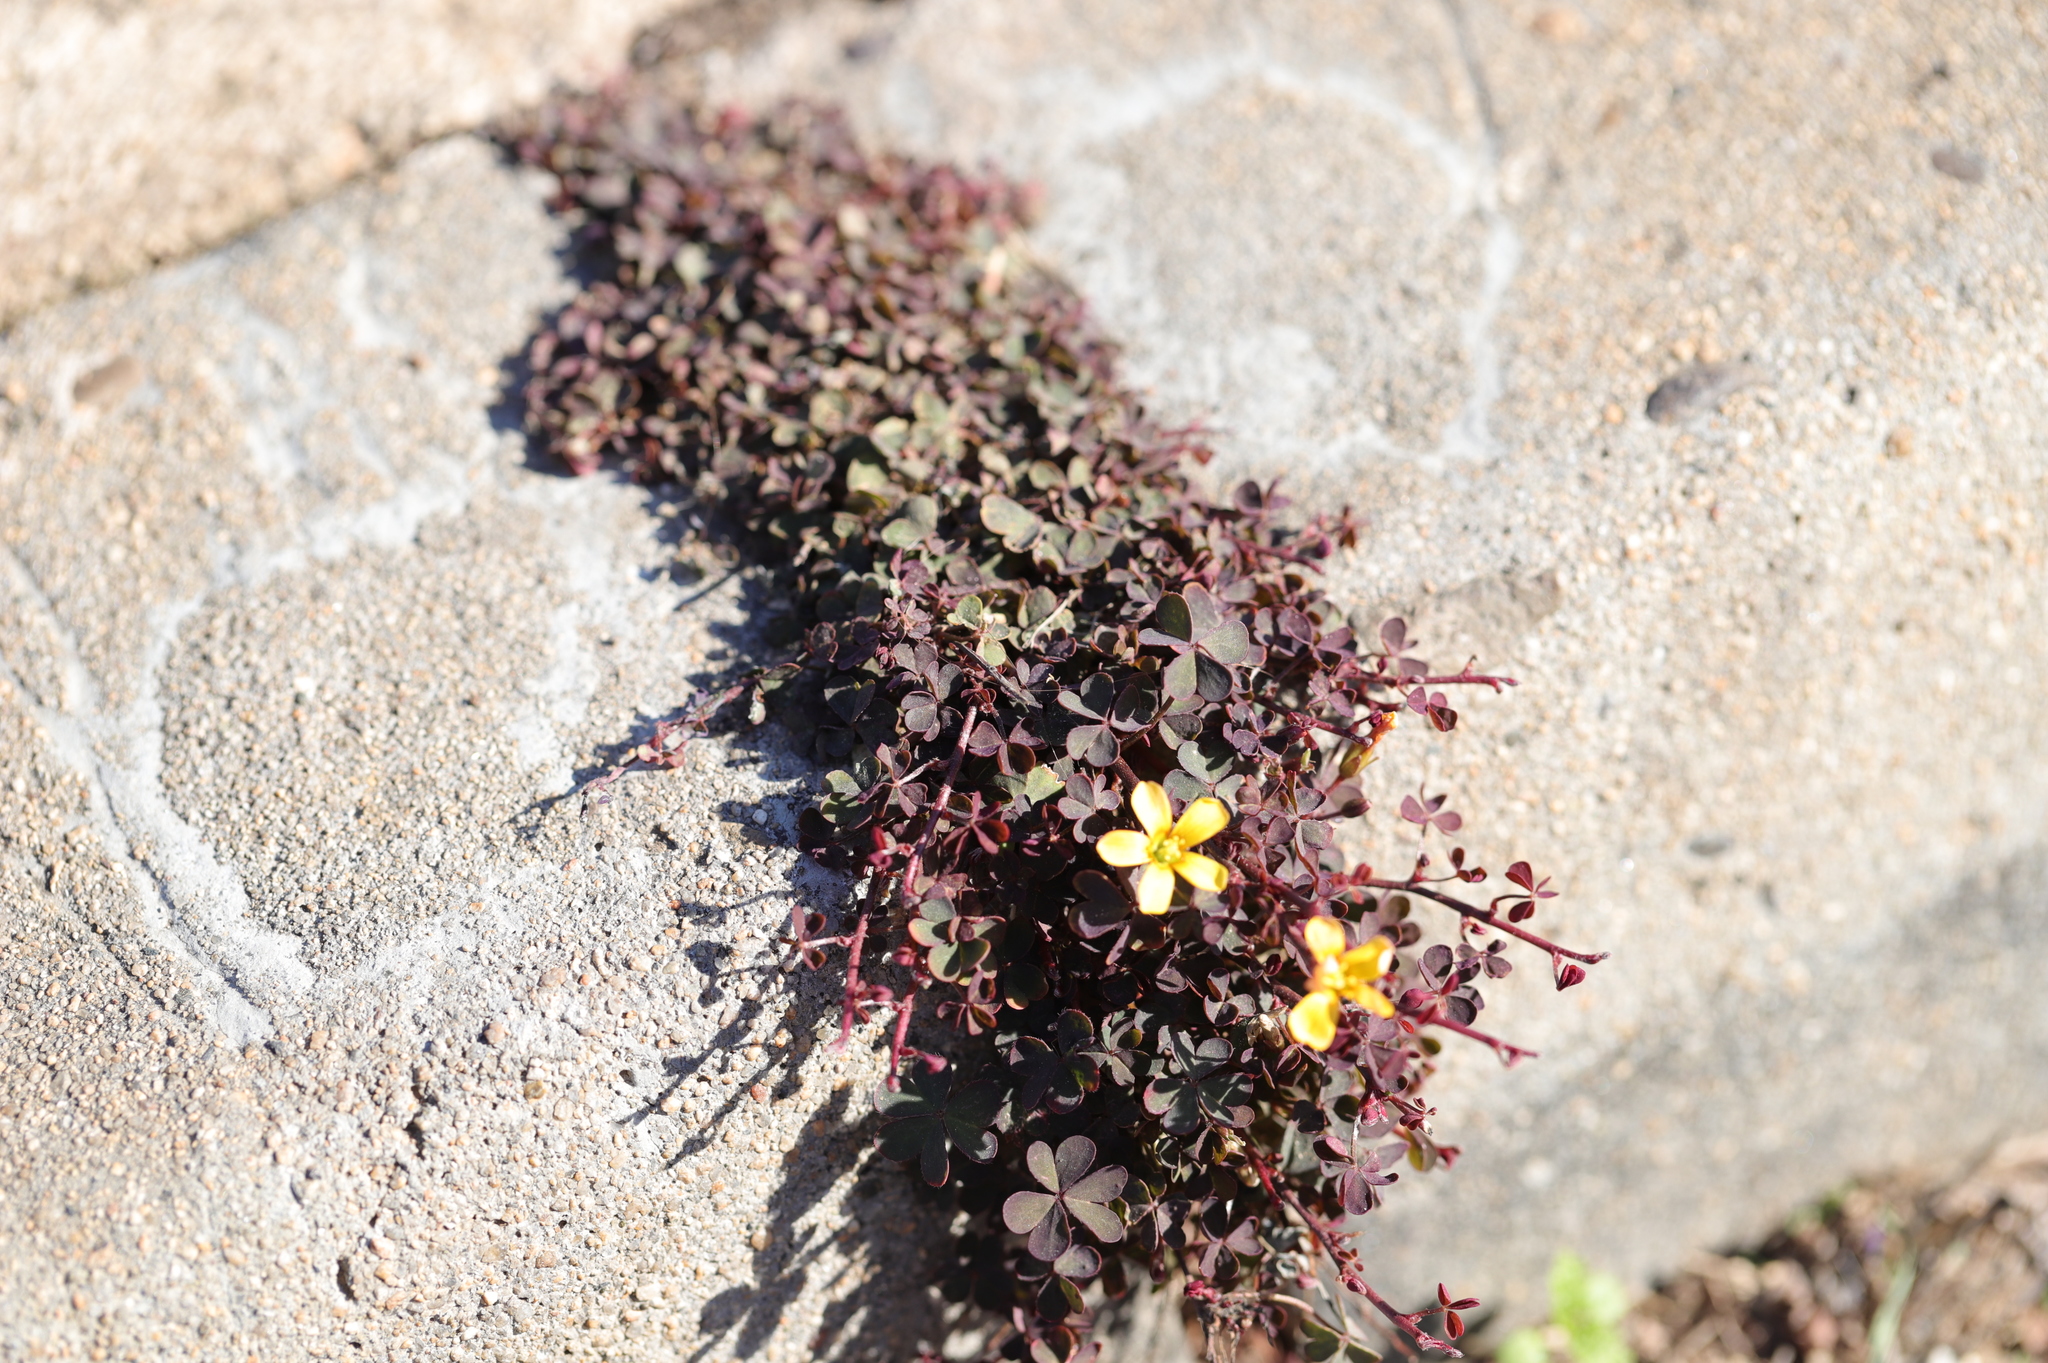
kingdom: Plantae
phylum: Tracheophyta
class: Magnoliopsida
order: Oxalidales
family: Oxalidaceae
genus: Oxalis
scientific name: Oxalis corniculata
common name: Procumbent yellow-sorrel
